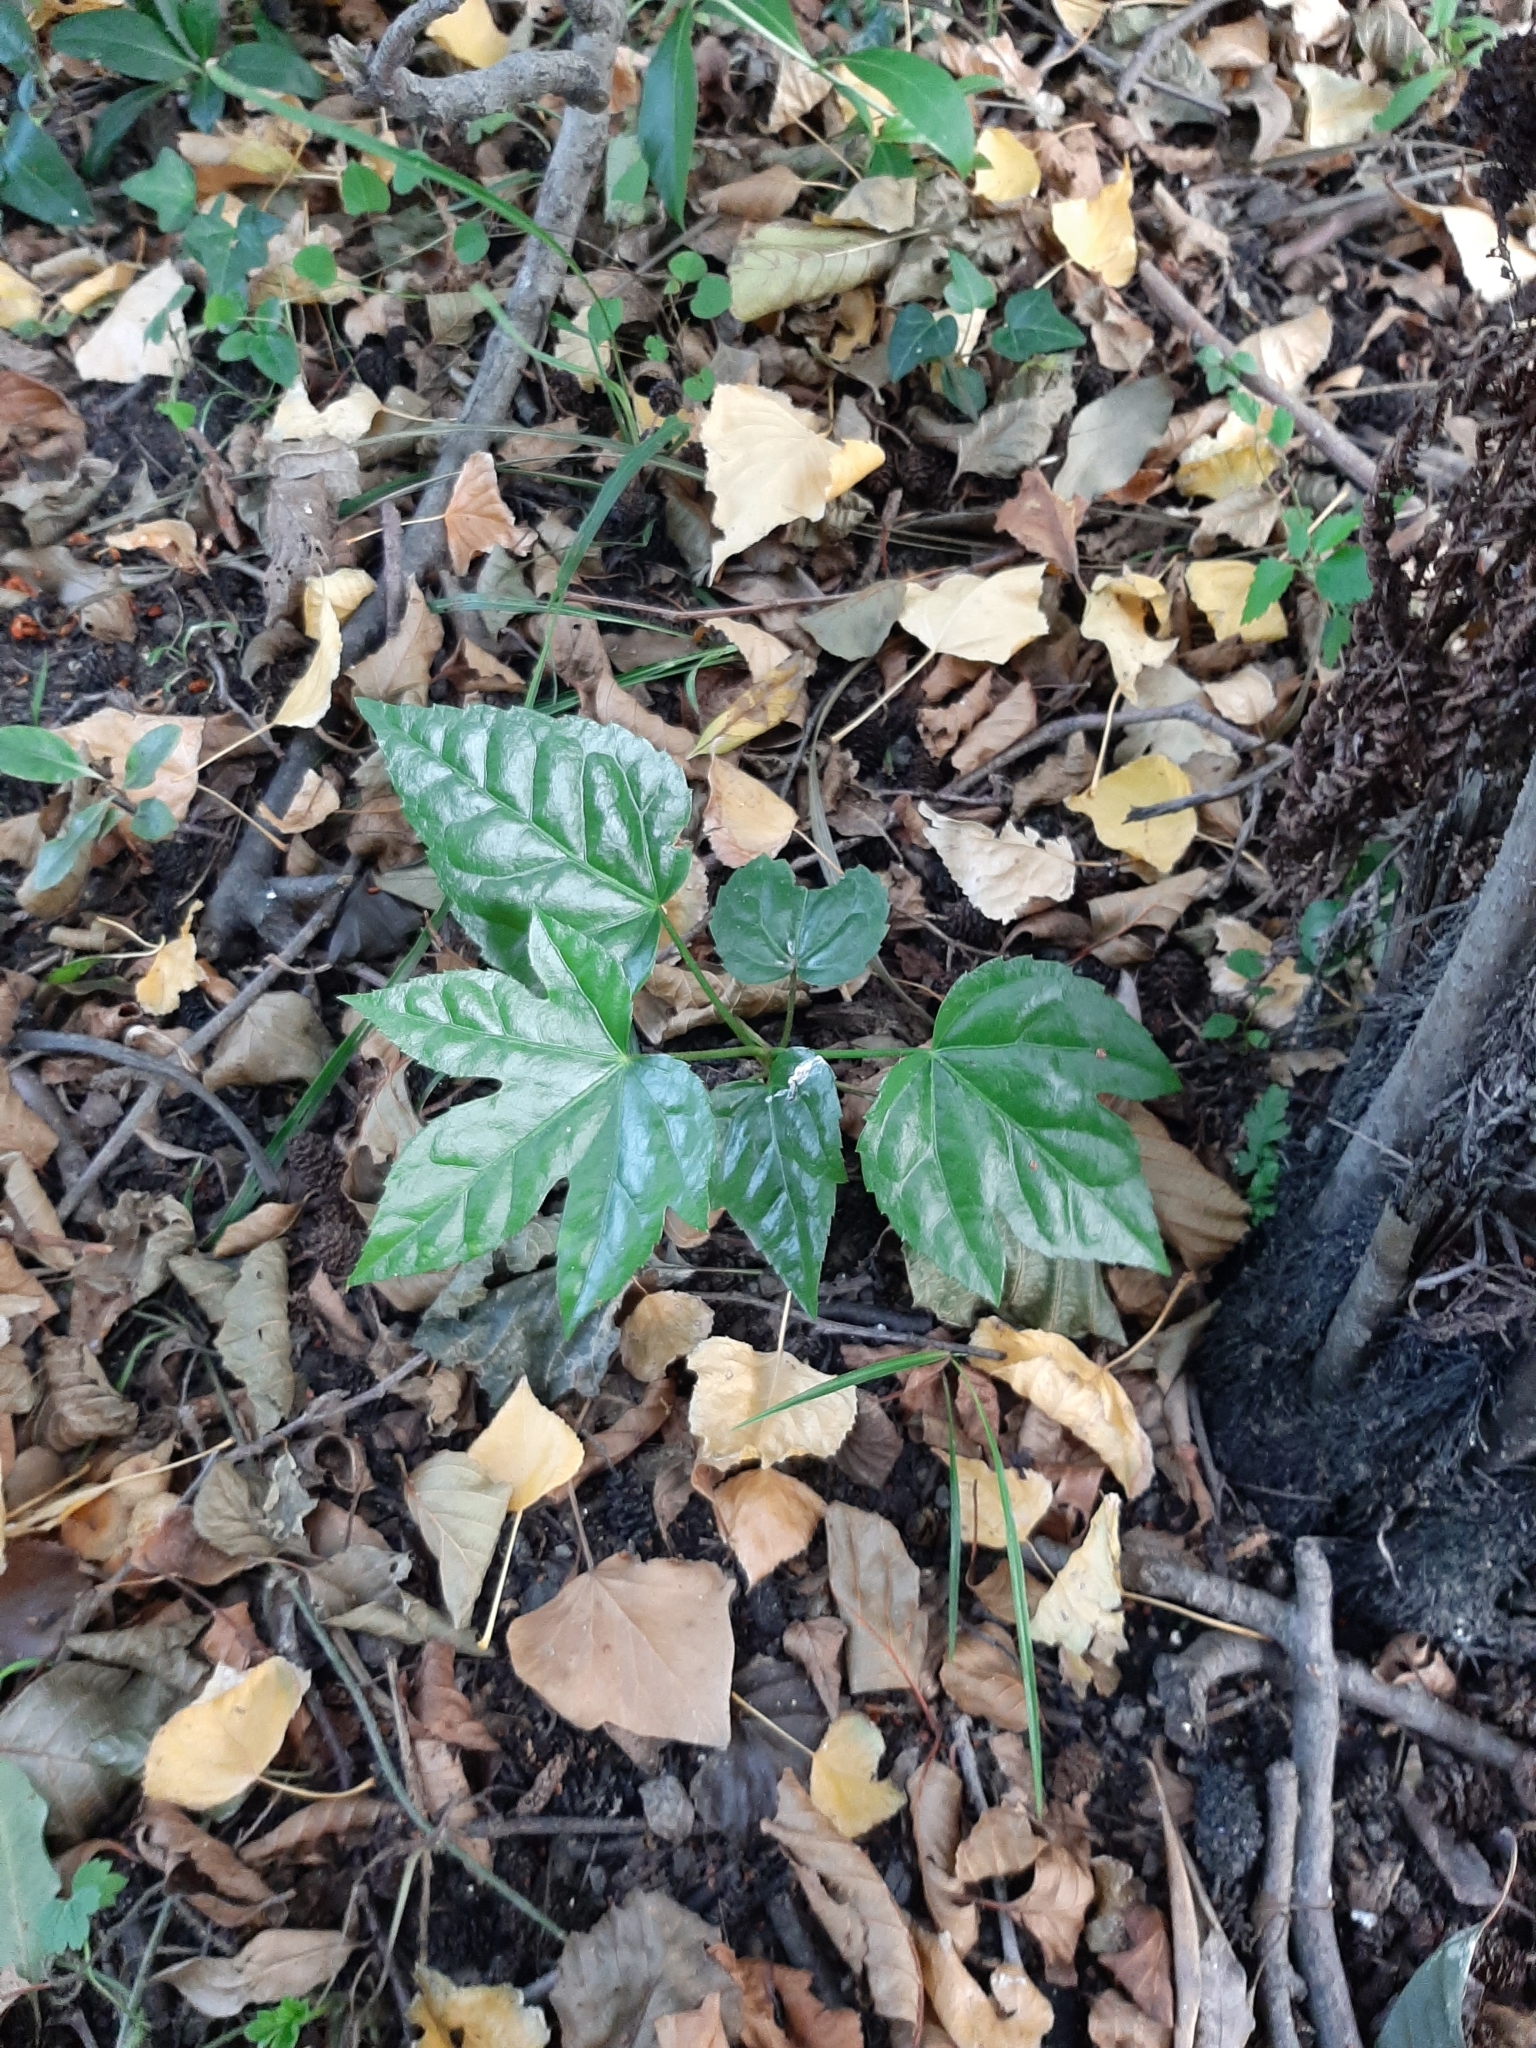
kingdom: Plantae
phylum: Tracheophyta
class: Magnoliopsida
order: Apiales
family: Araliaceae
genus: Fatsia
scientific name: Fatsia japonica
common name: Fatsia
